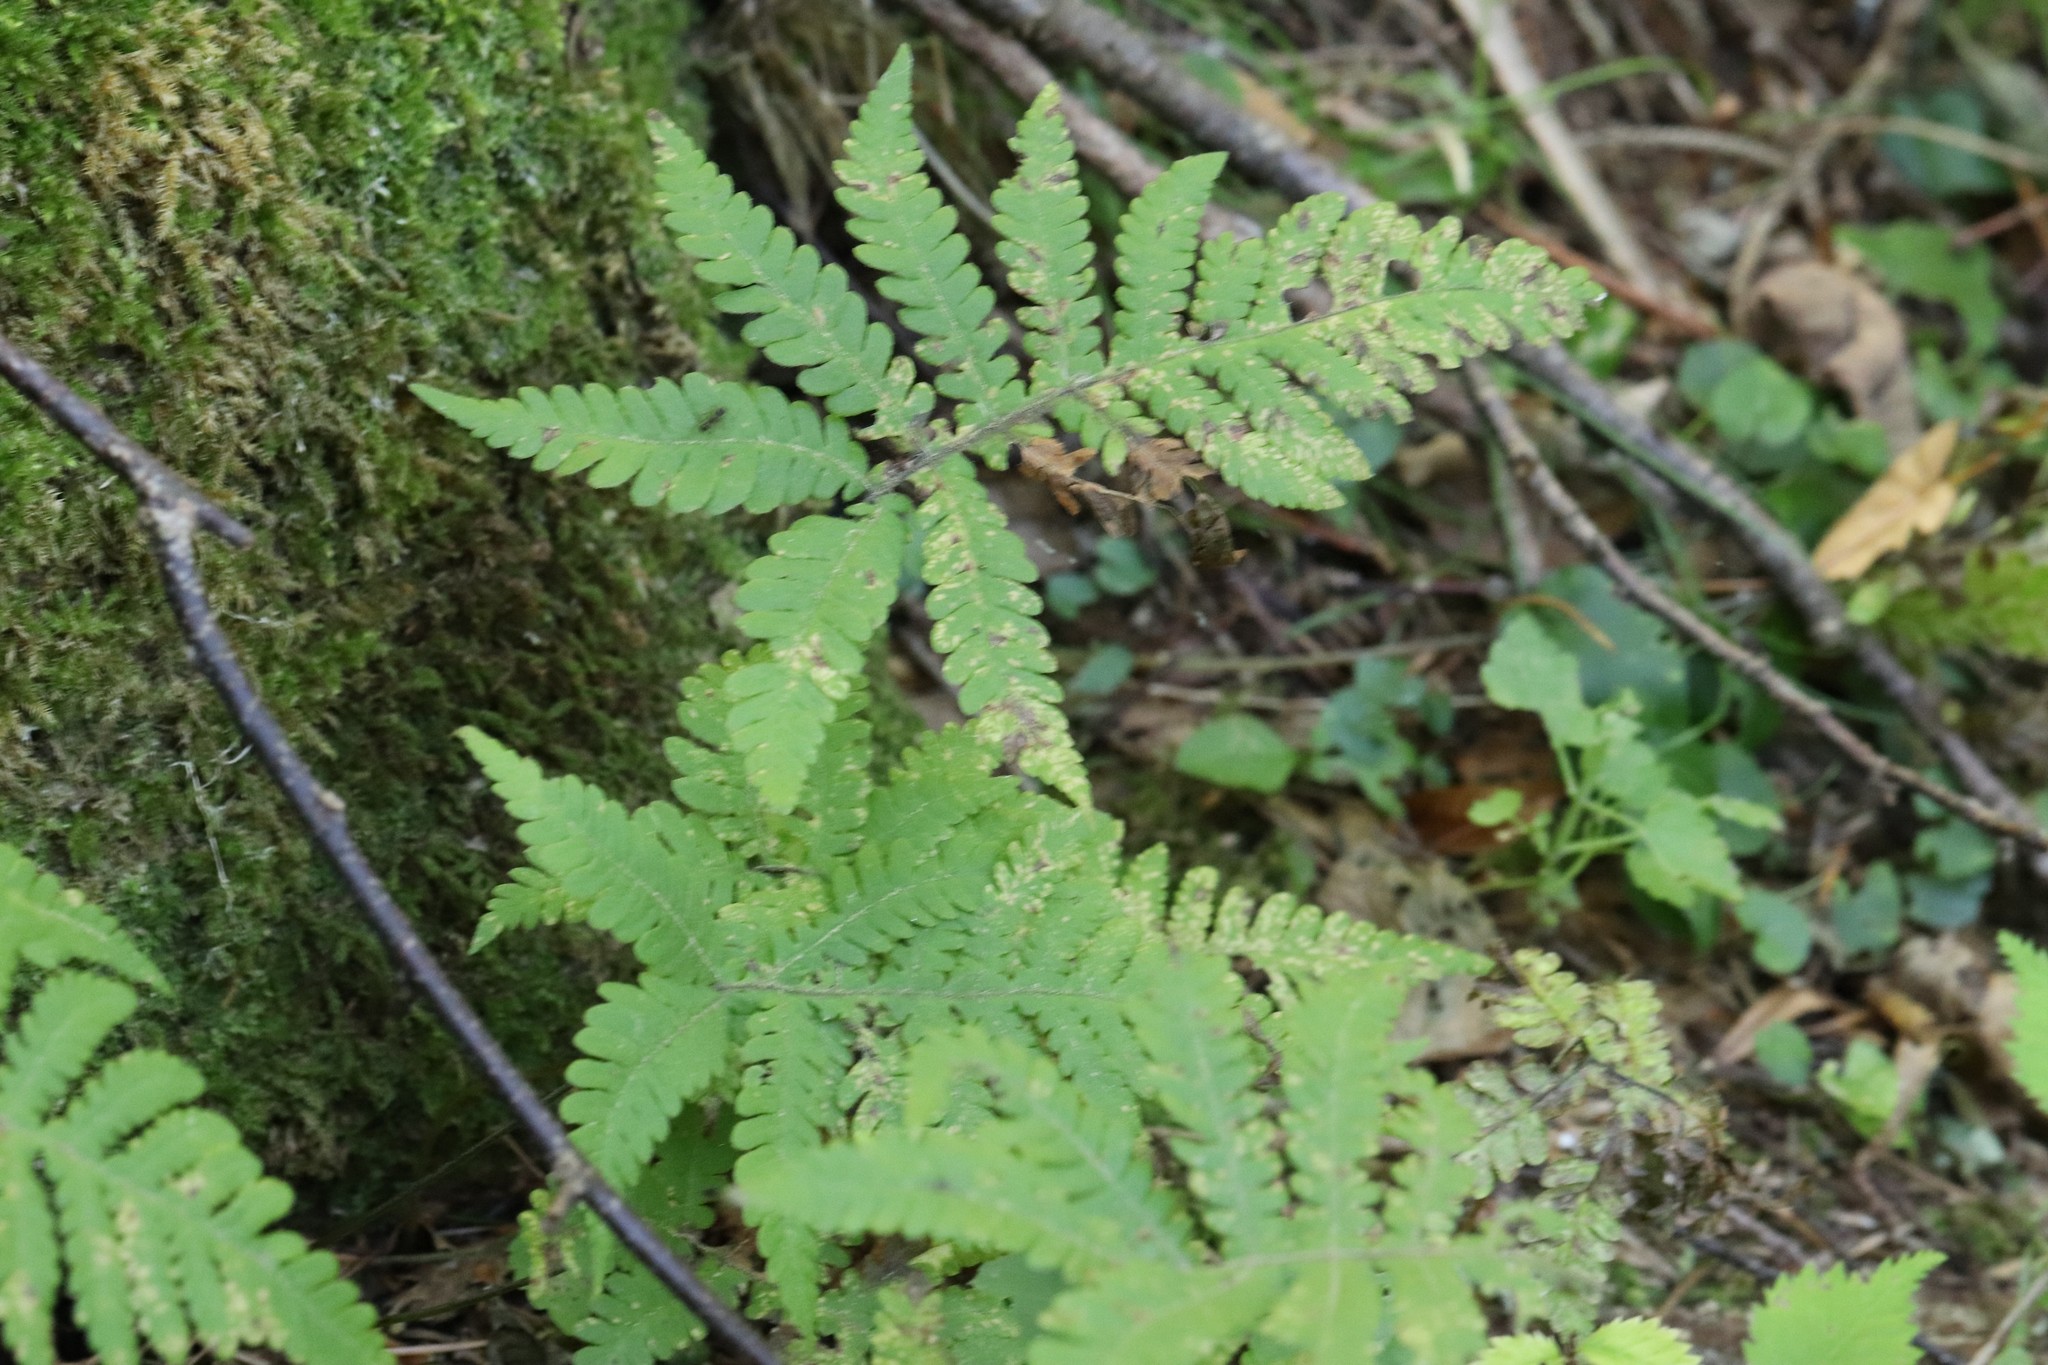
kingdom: Plantae
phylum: Tracheophyta
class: Polypodiopsida
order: Polypodiales
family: Thelypteridaceae
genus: Phegopteris
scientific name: Phegopteris connectilis
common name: Beech fern
